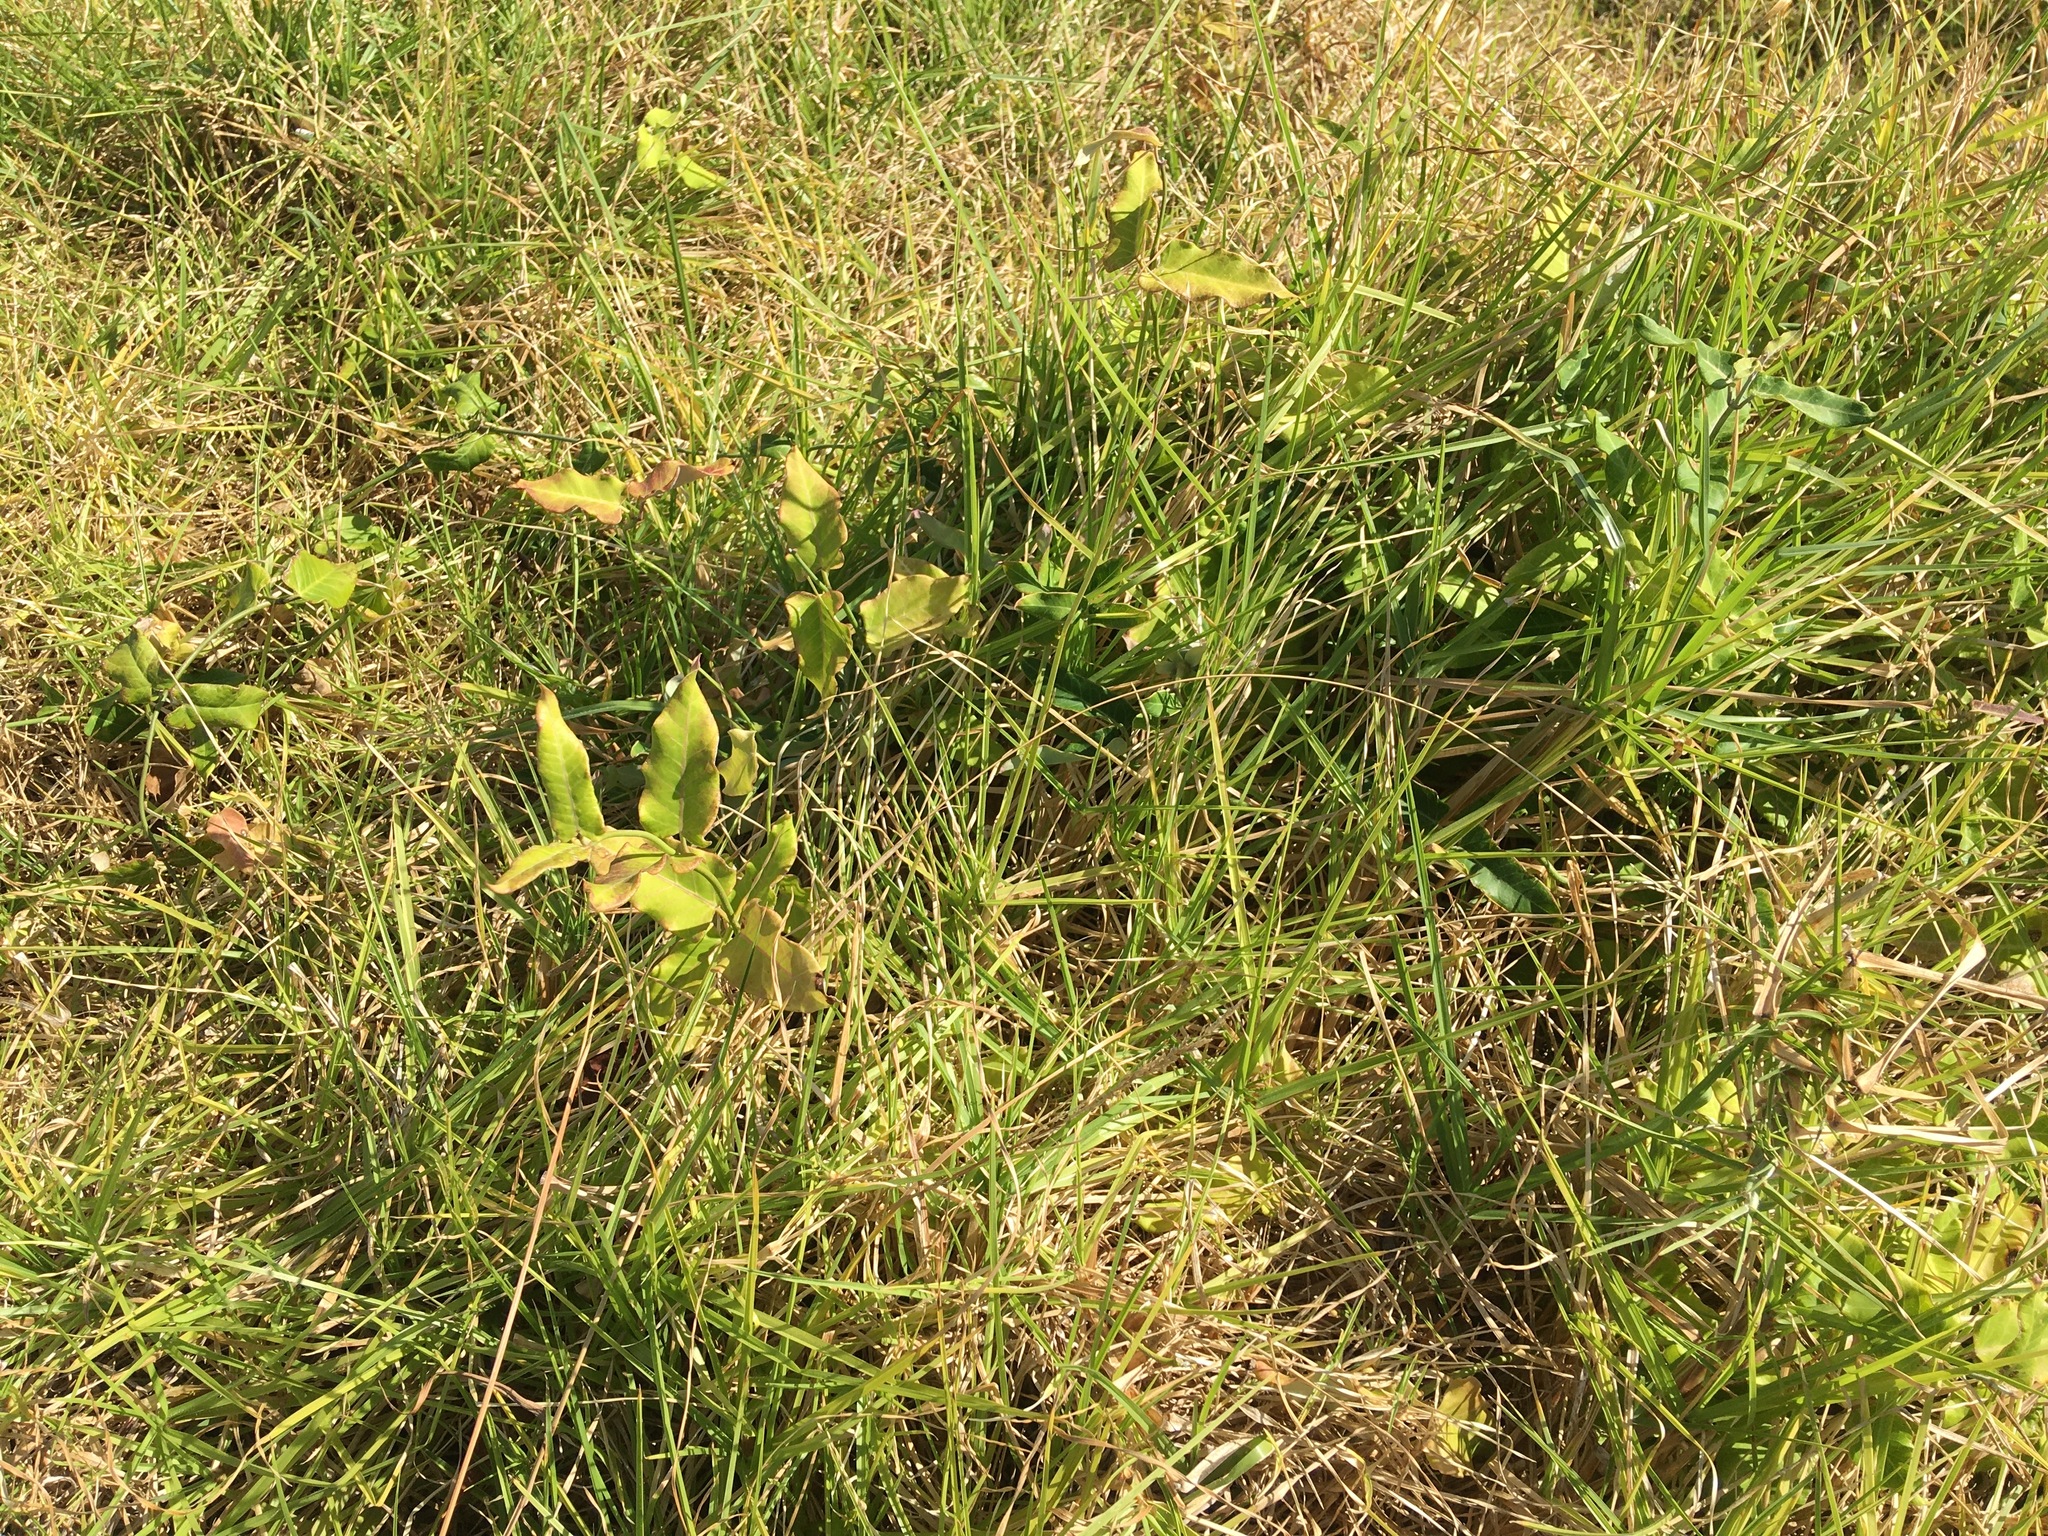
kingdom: Plantae
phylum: Tracheophyta
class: Magnoliopsida
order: Gentianales
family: Apocynaceae
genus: Araujia
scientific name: Araujia sericifera
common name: White bladderflower
